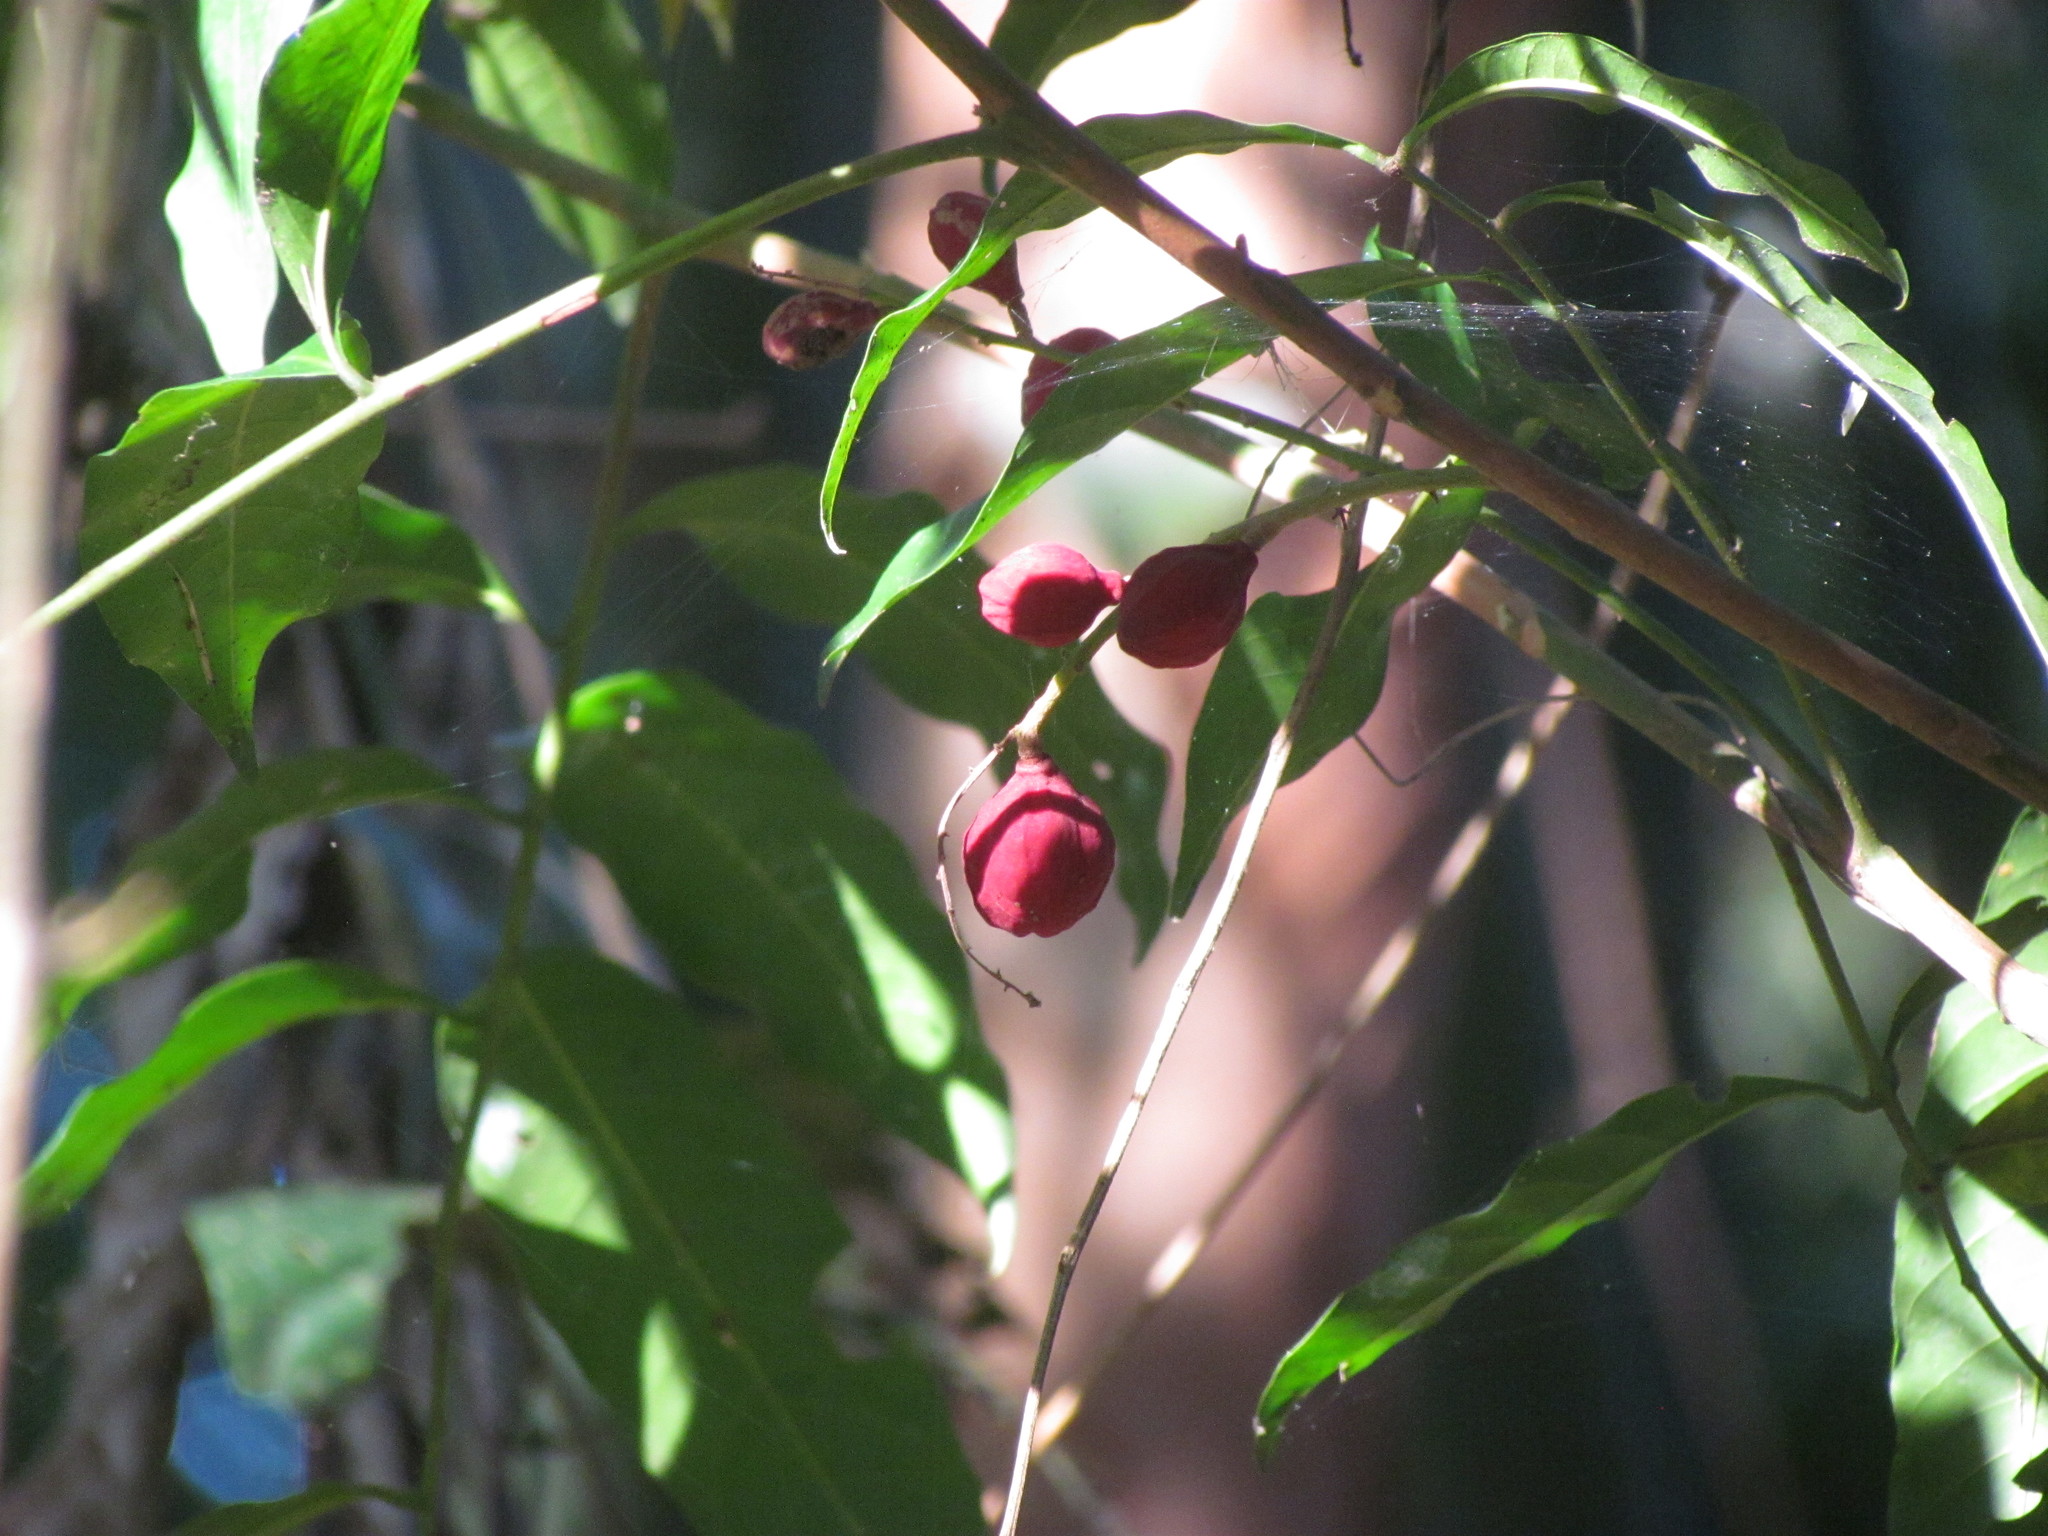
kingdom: Plantae
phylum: Tracheophyta
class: Magnoliopsida
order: Sapindales
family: Meliaceae
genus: Guarea
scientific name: Guarea macrophylla
